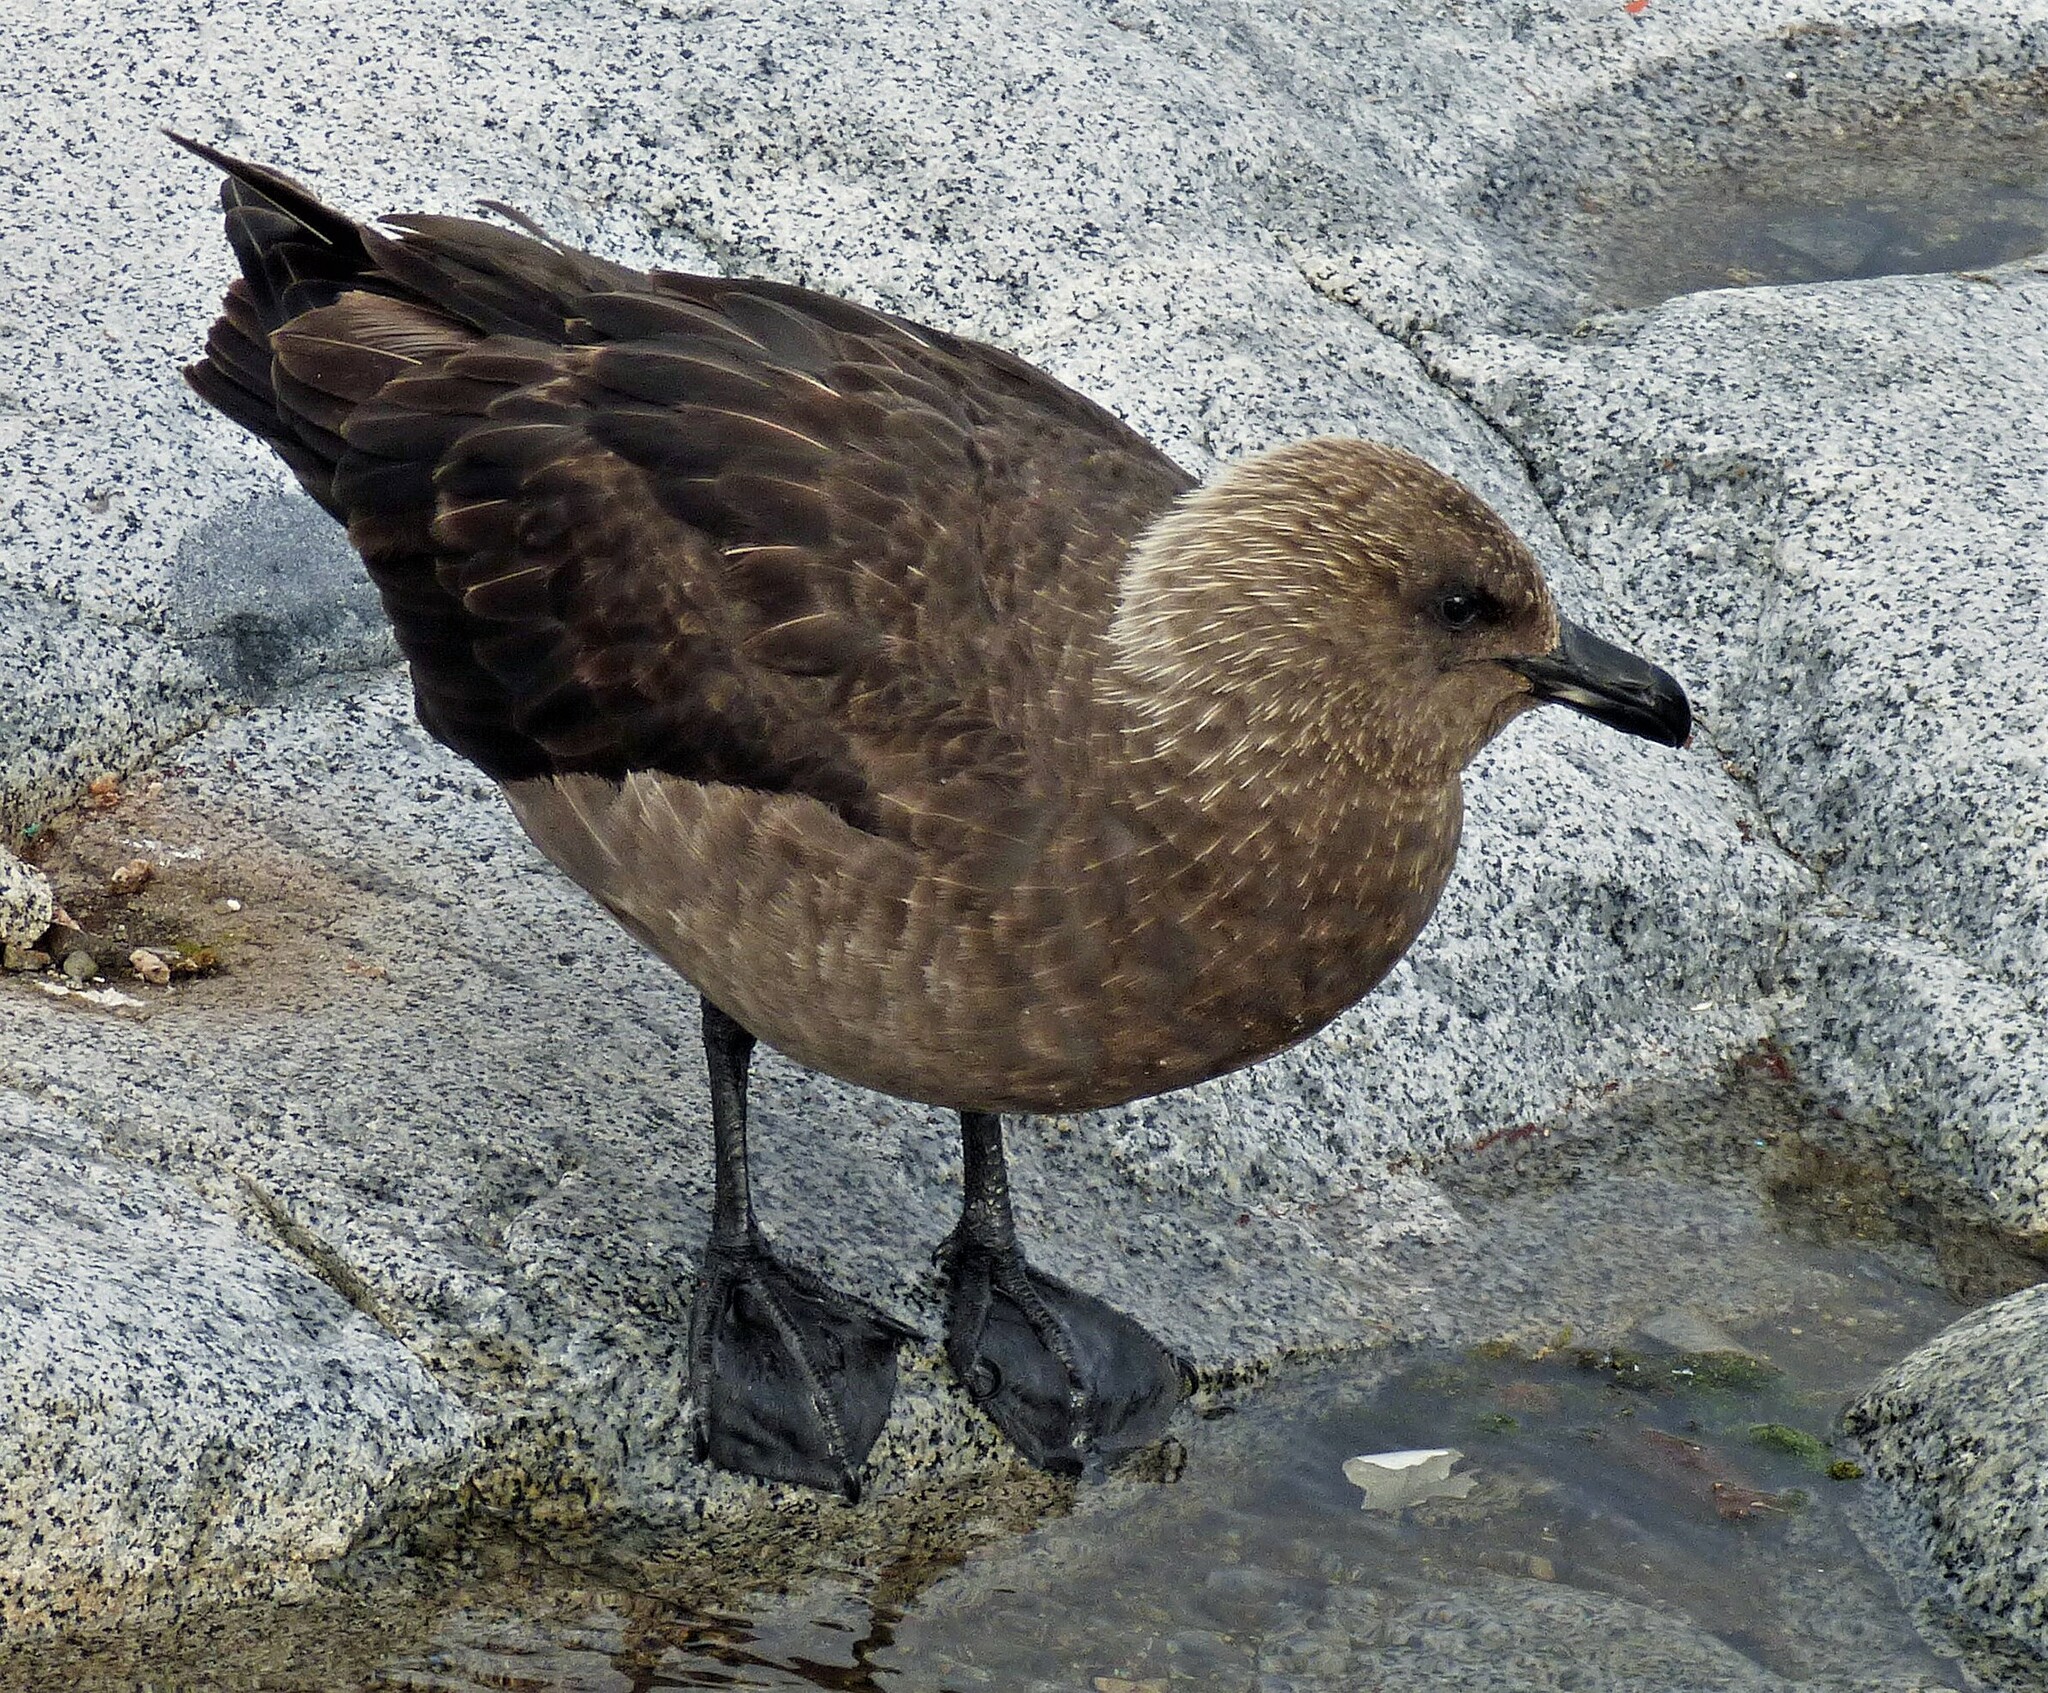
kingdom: Animalia
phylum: Chordata
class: Aves
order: Charadriiformes
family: Stercorariidae
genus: Stercorarius
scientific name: Stercorarius maccormicki
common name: South polar skua
